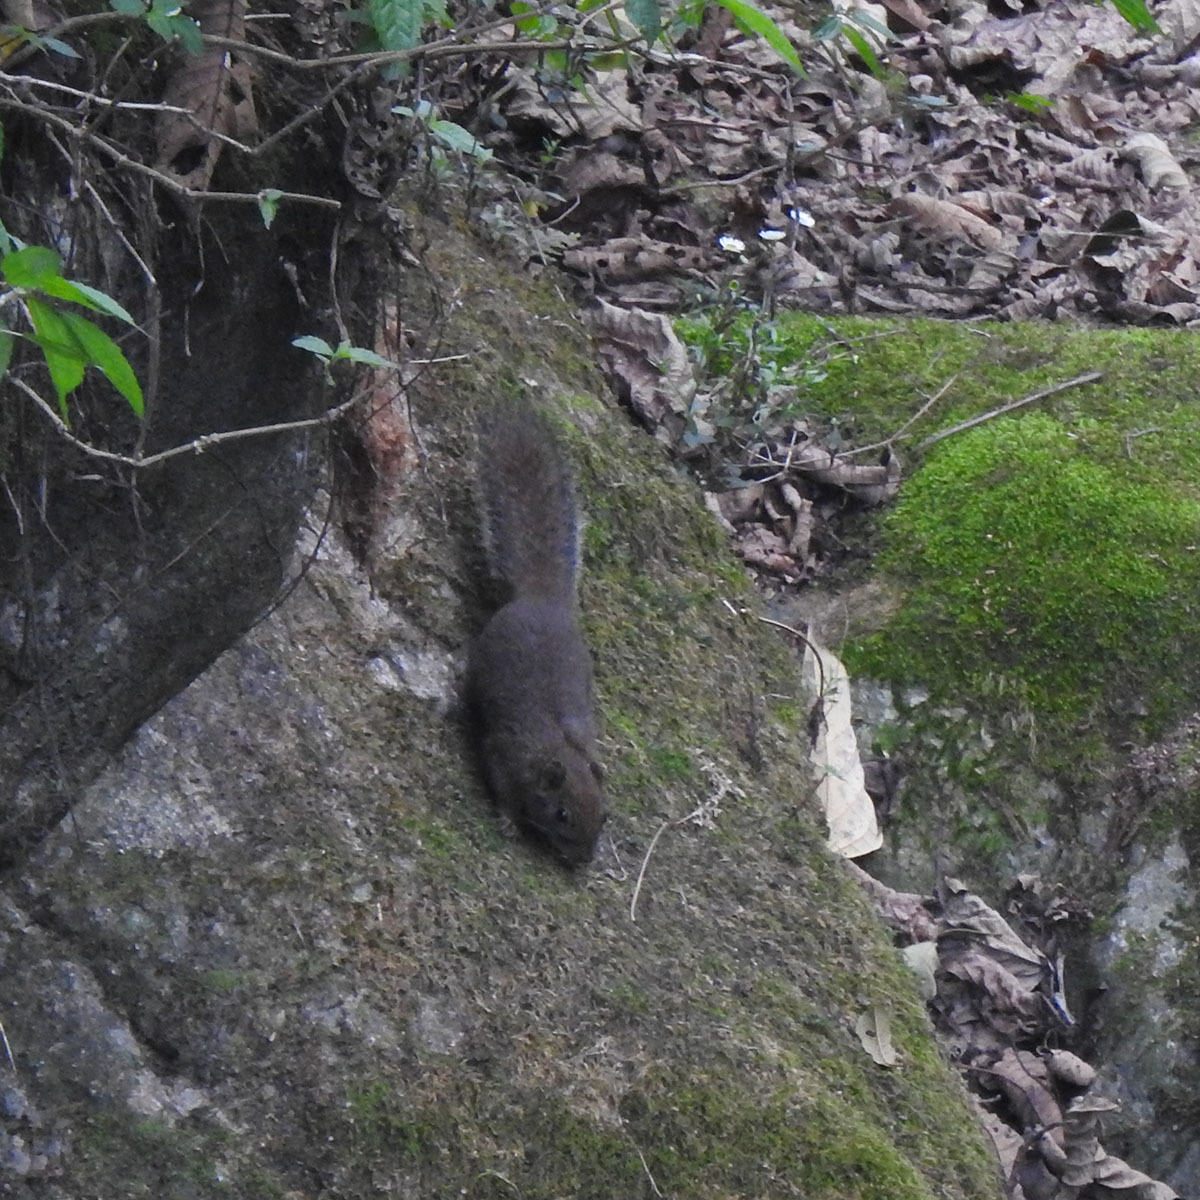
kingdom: Animalia
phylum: Chordata
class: Mammalia
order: Rodentia
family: Sciuridae
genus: Callosciurus
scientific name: Callosciurus pygerythrus
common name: Irrawaddy squirrel
